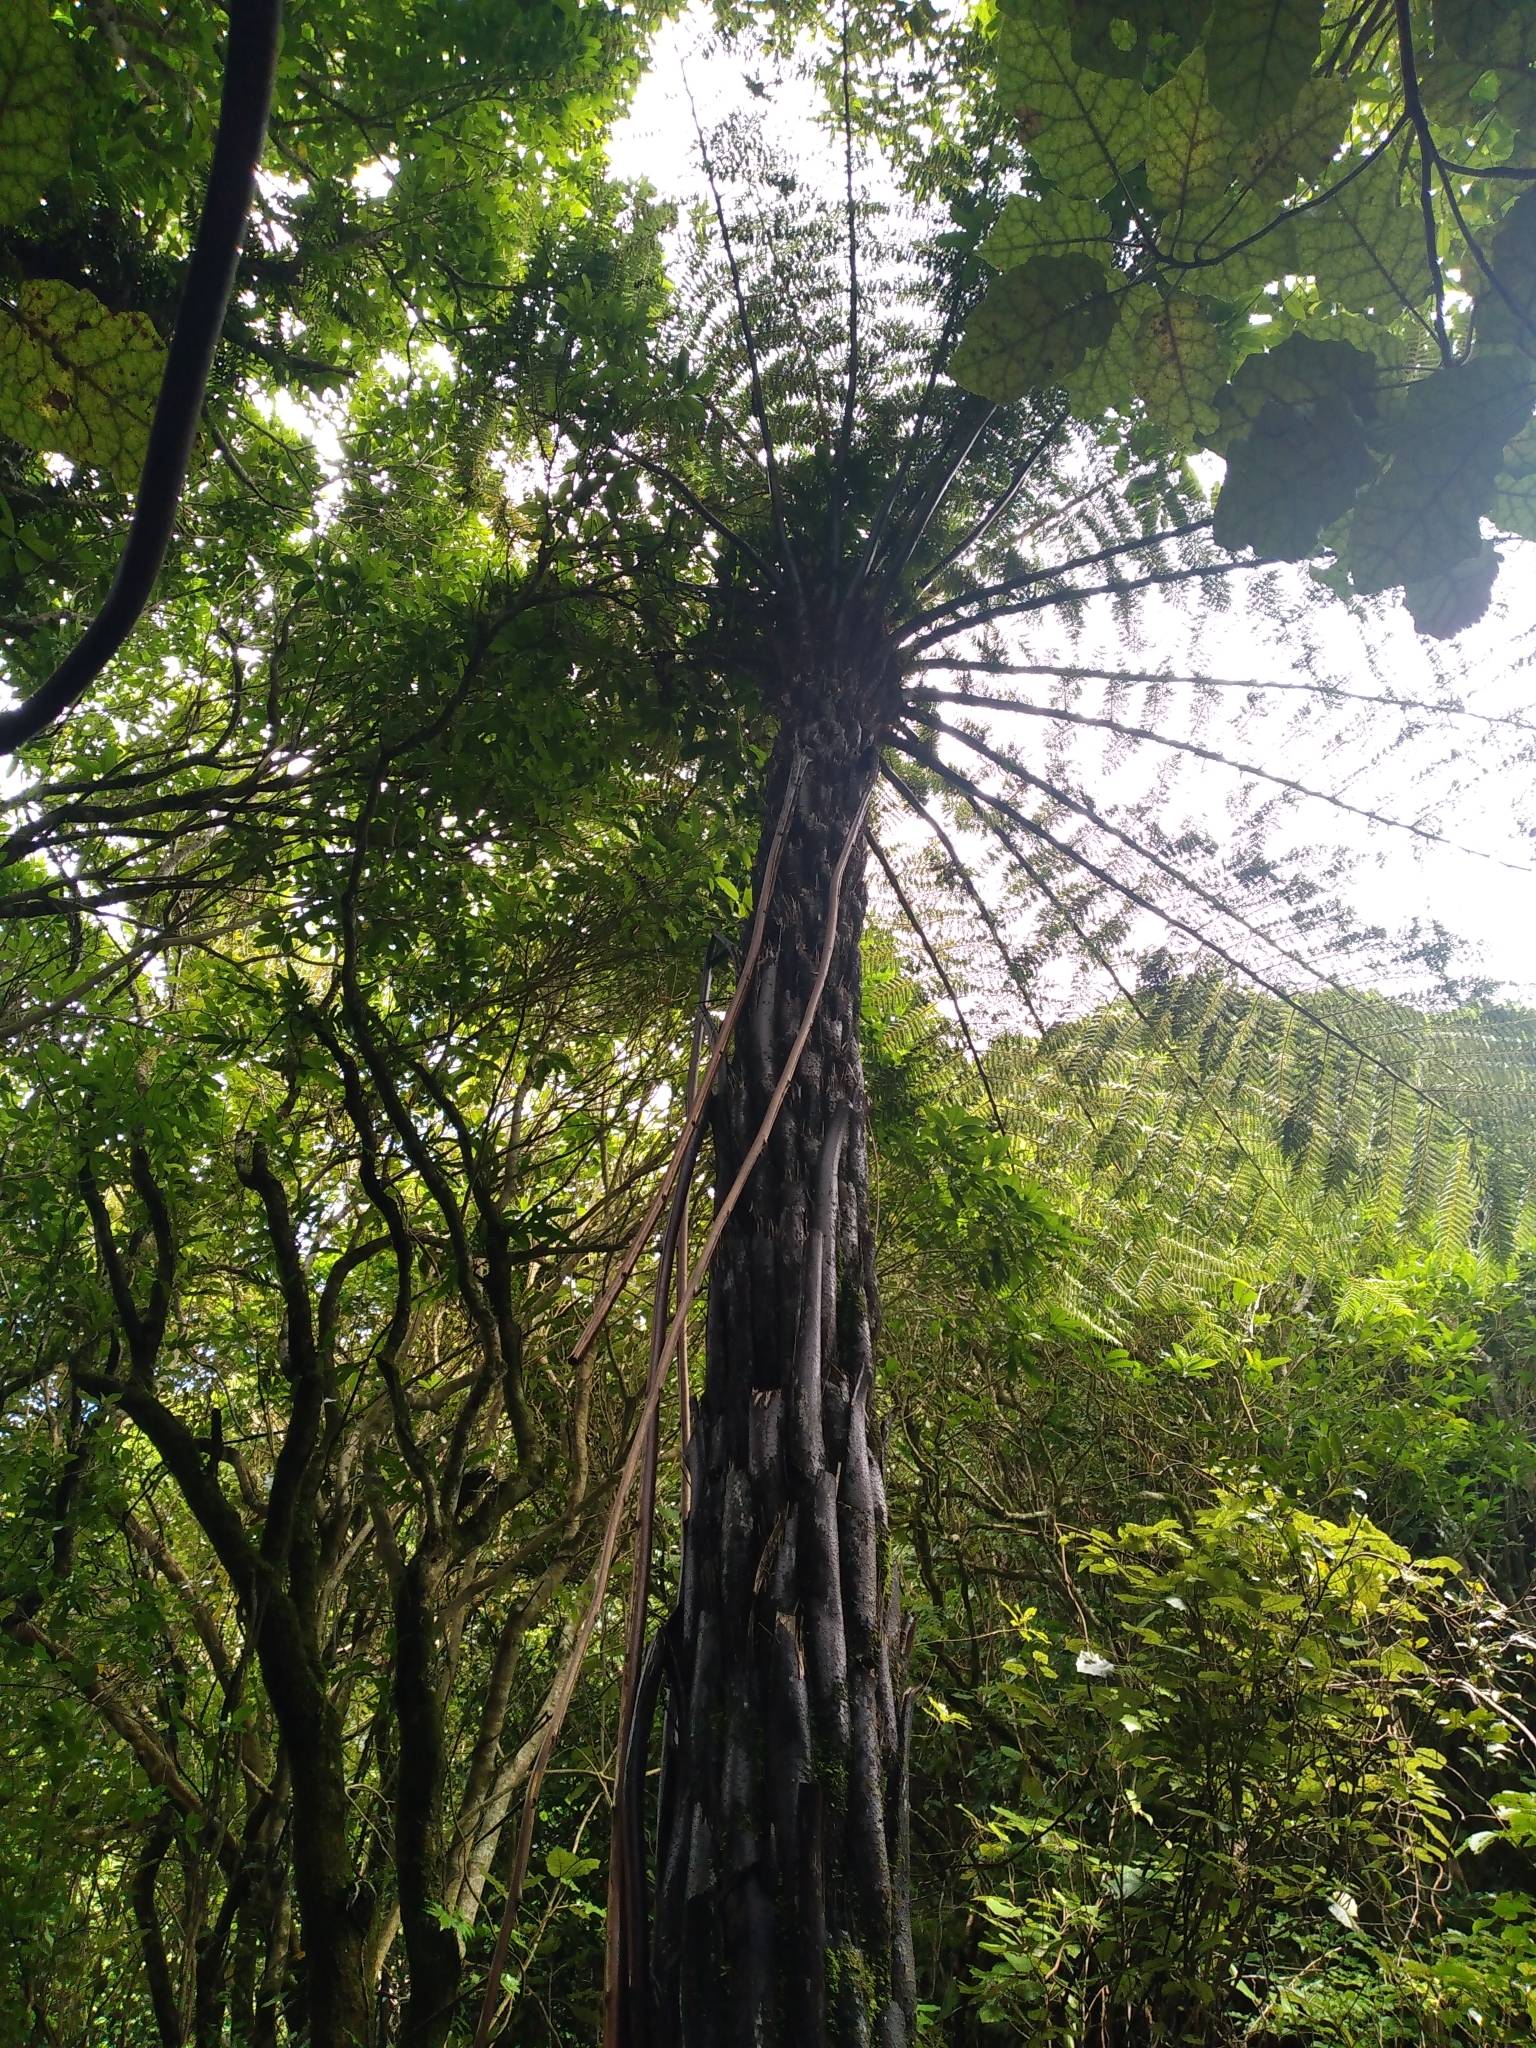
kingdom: Plantae
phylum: Tracheophyta
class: Polypodiopsida
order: Cyatheales
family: Cyatheaceae
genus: Cyathea
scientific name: Cyathea cunninghamii
